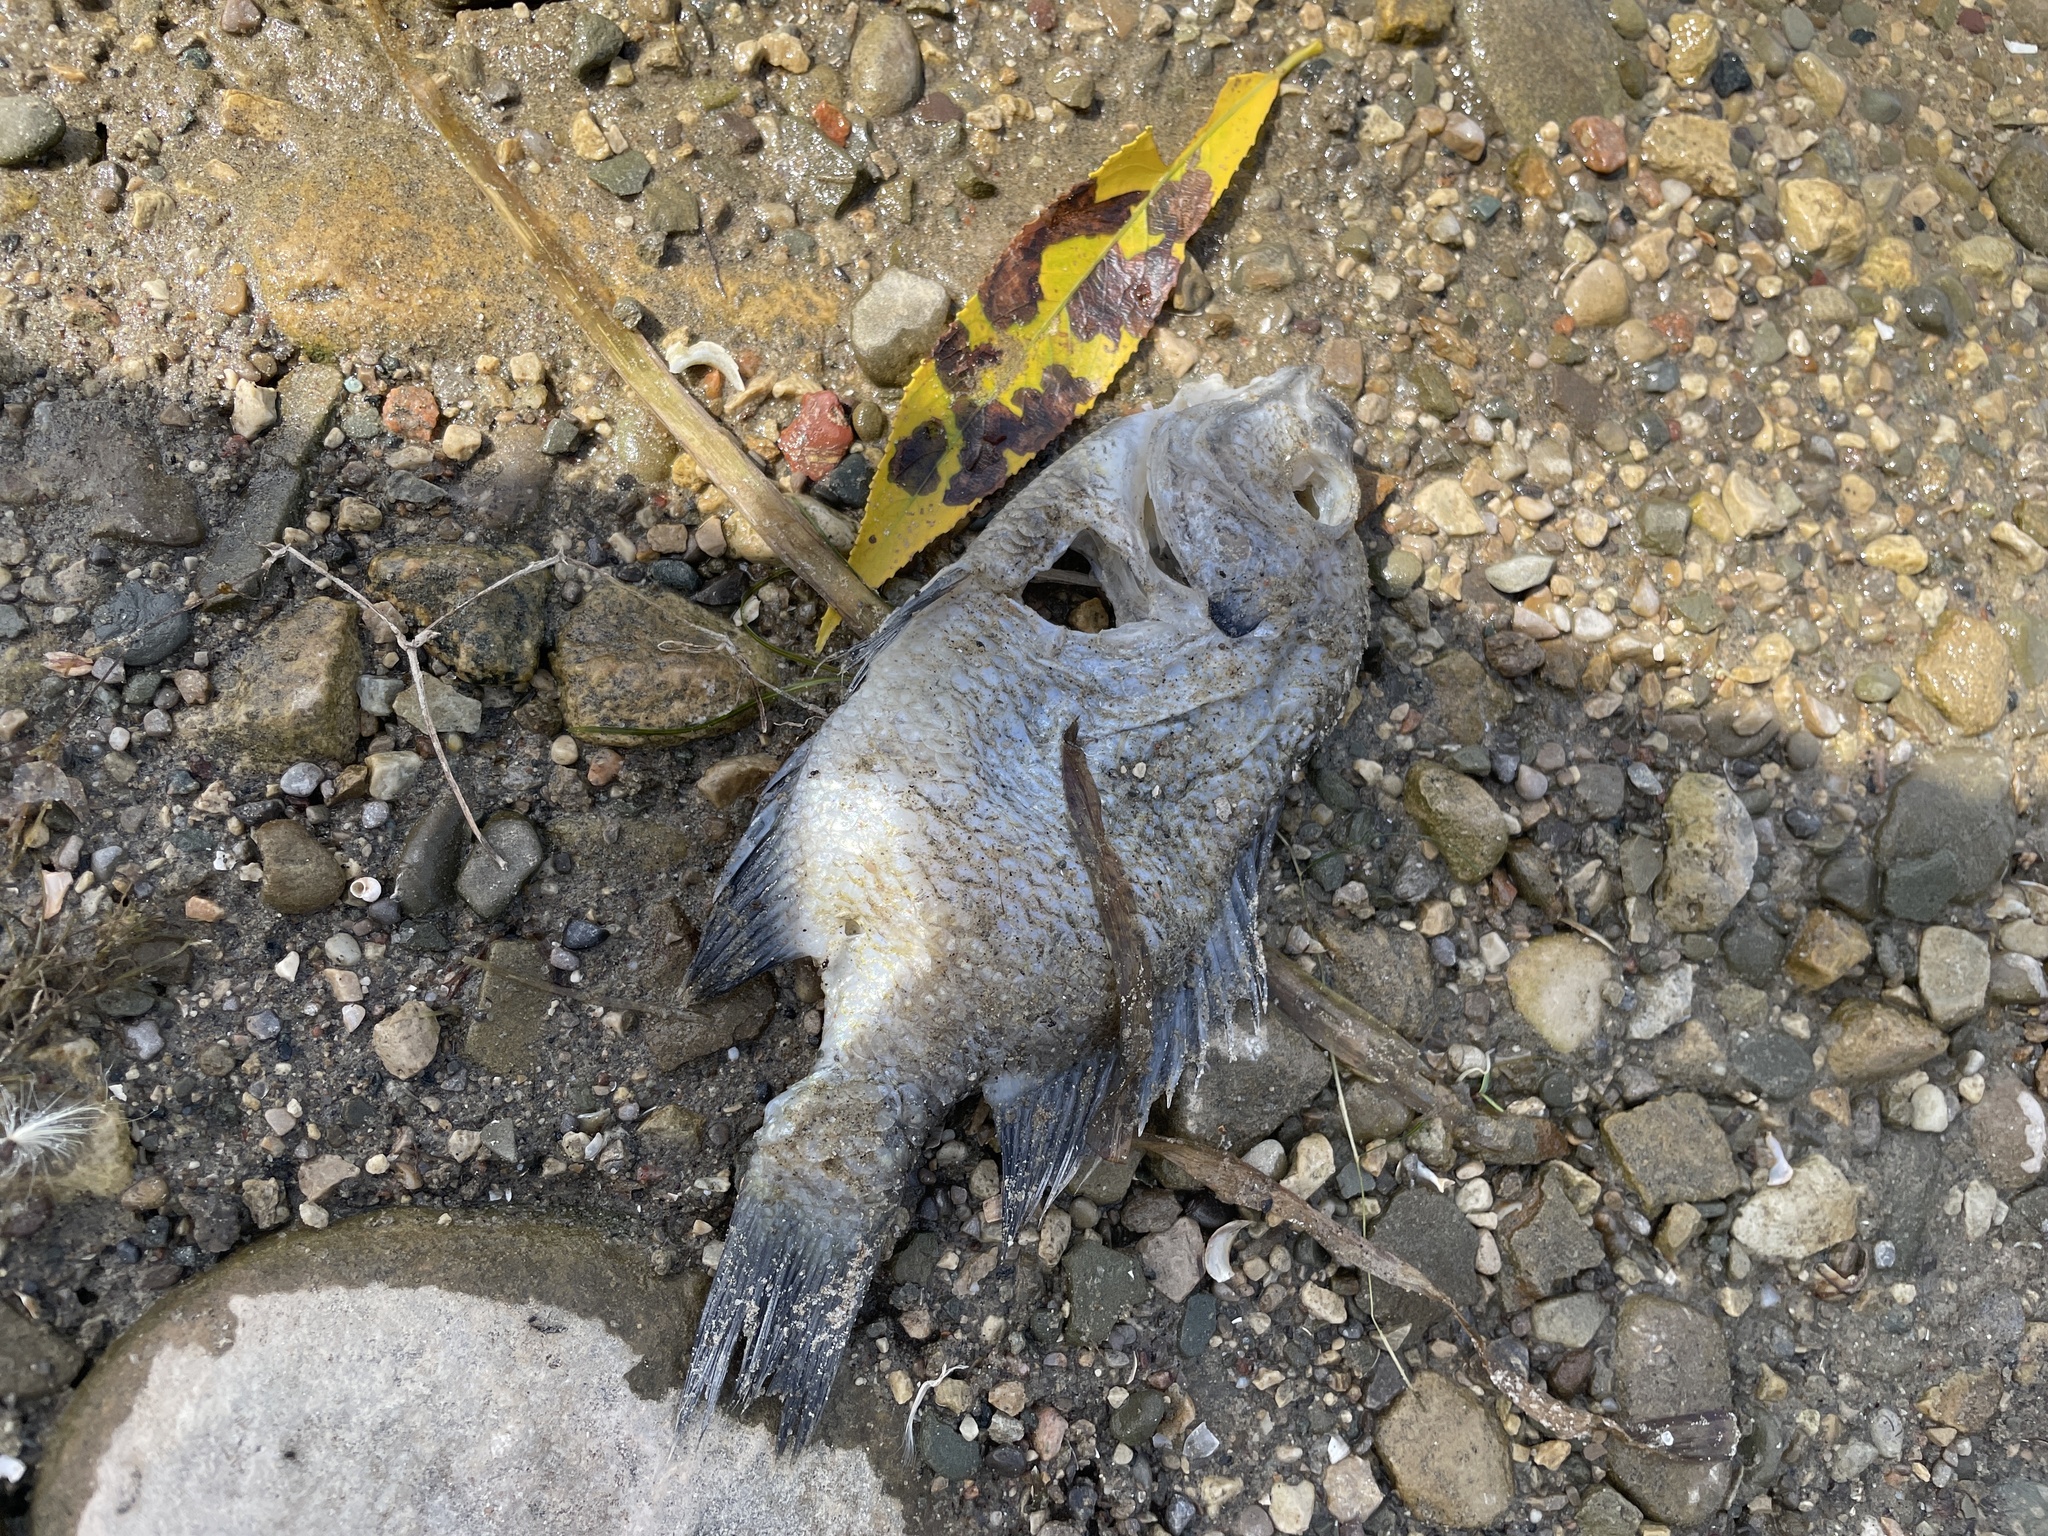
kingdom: Animalia
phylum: Chordata
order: Perciformes
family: Centrarchidae
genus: Lepomis
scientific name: Lepomis
